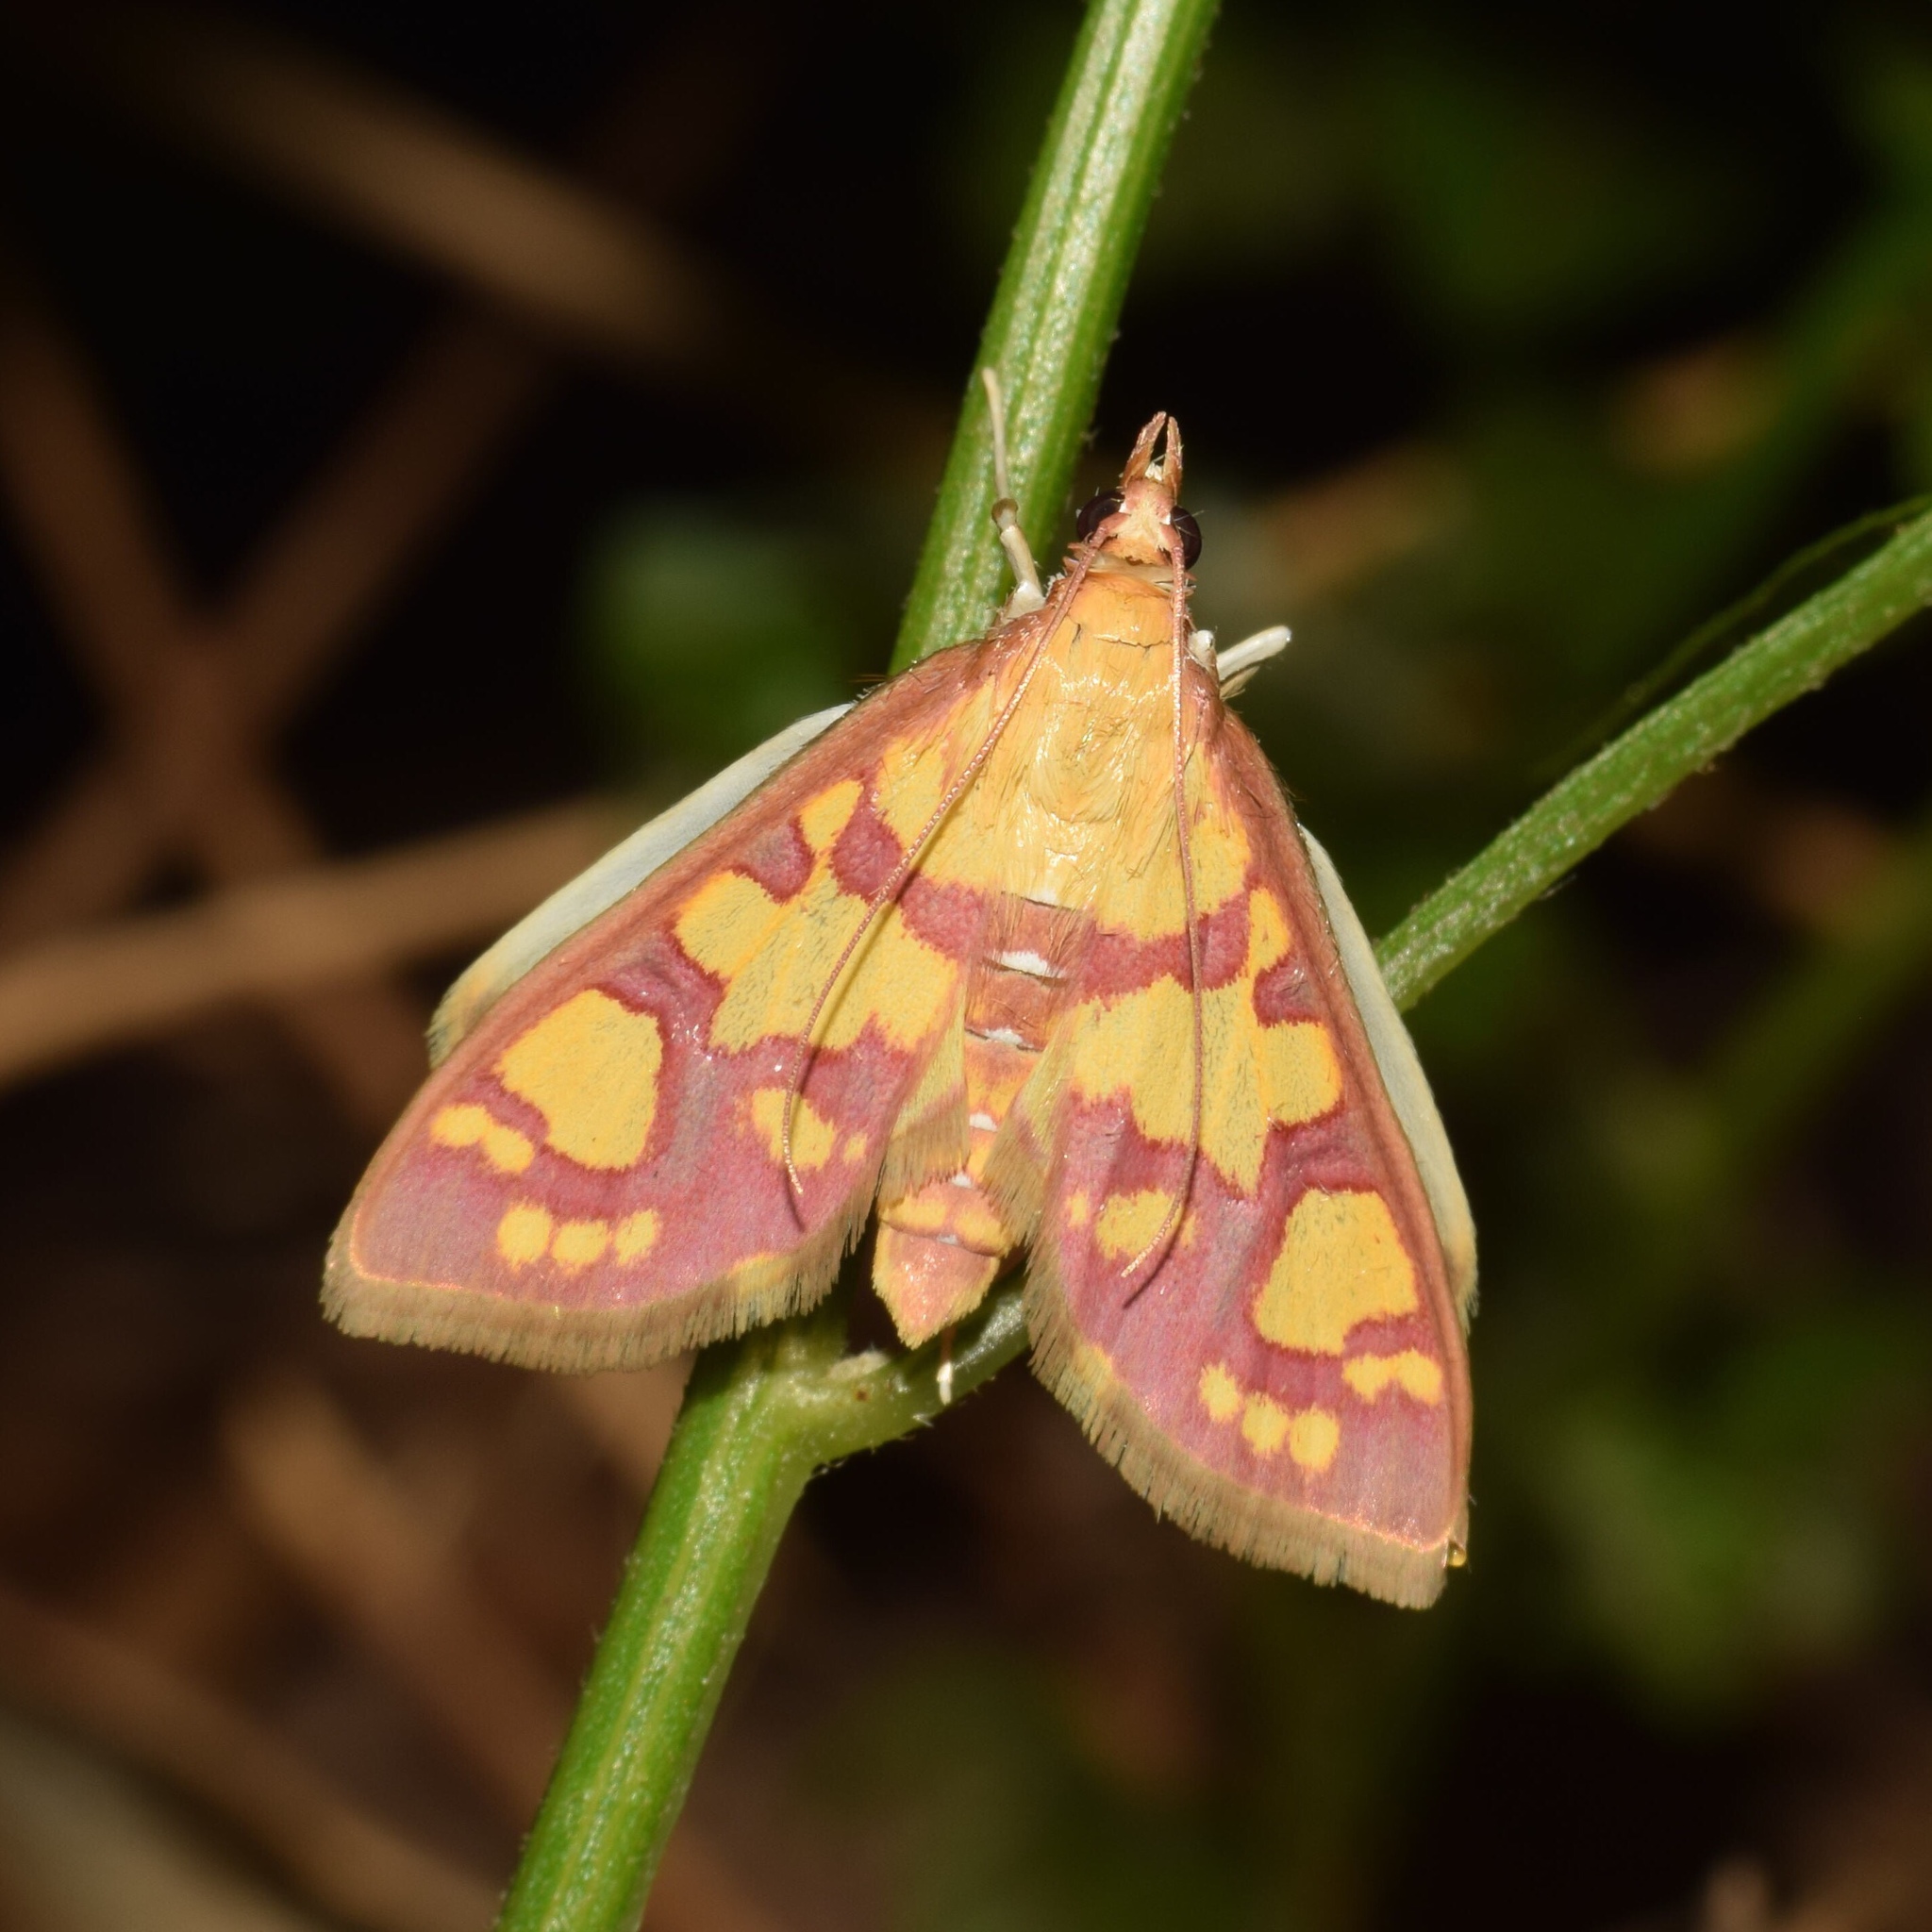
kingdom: Animalia
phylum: Arthropoda
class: Insecta
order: Lepidoptera
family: Crambidae
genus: Ischnurges
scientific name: Ischnurges Stenochora lancinalis
